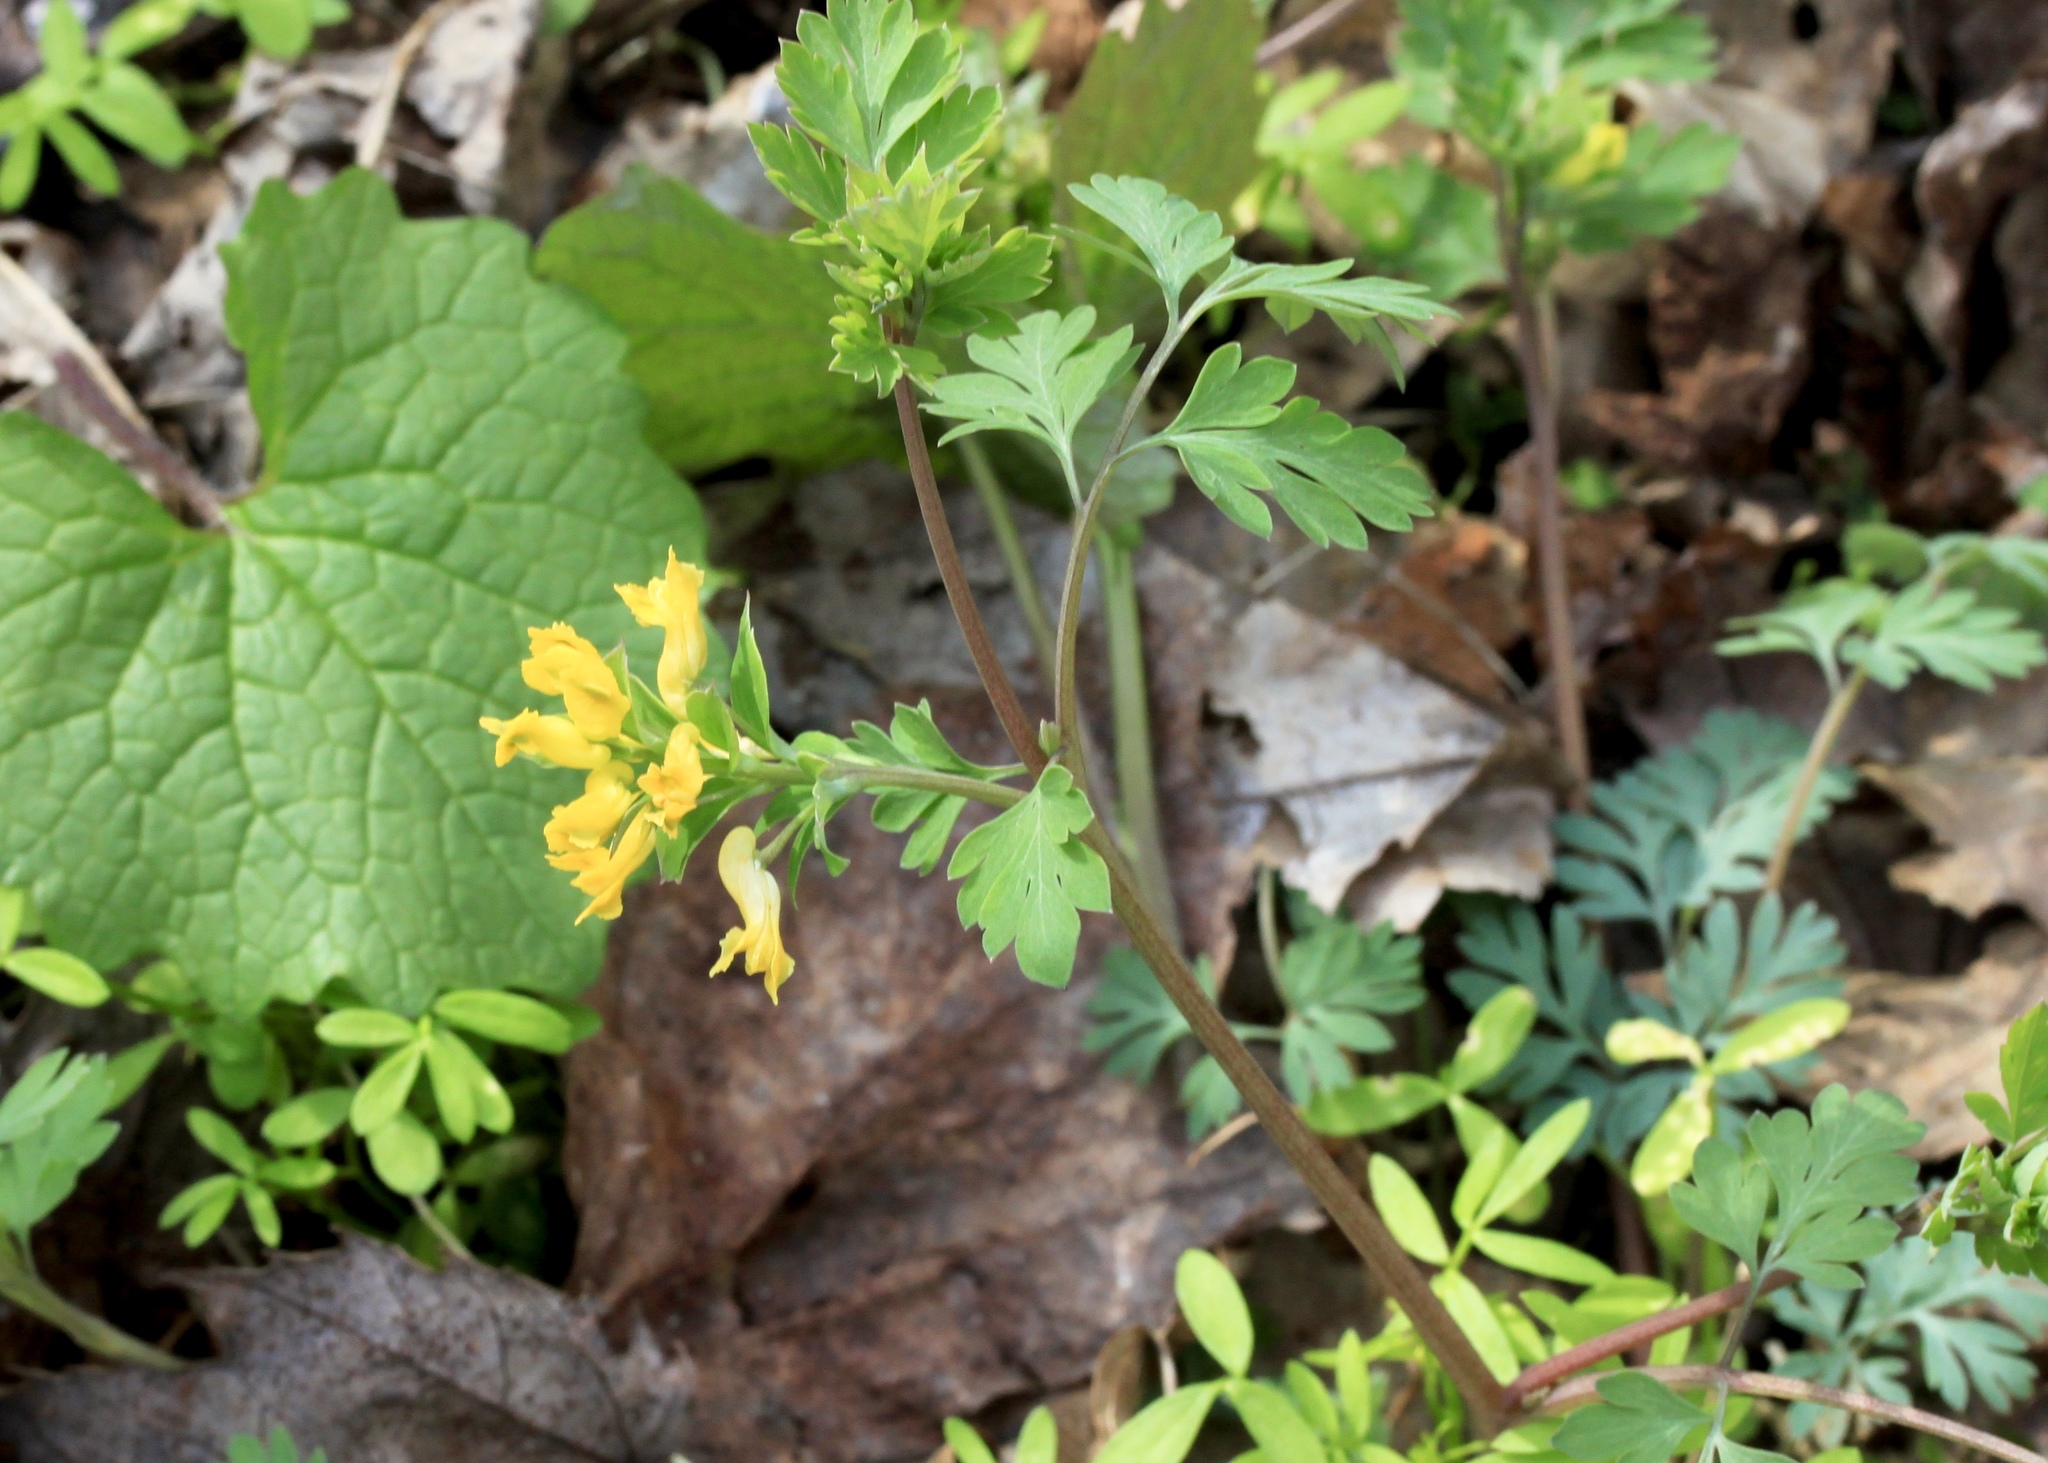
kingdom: Plantae
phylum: Tracheophyta
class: Magnoliopsida
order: Ranunculales
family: Papaveraceae
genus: Corydalis
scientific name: Corydalis flavula
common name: Yellow corydalis
